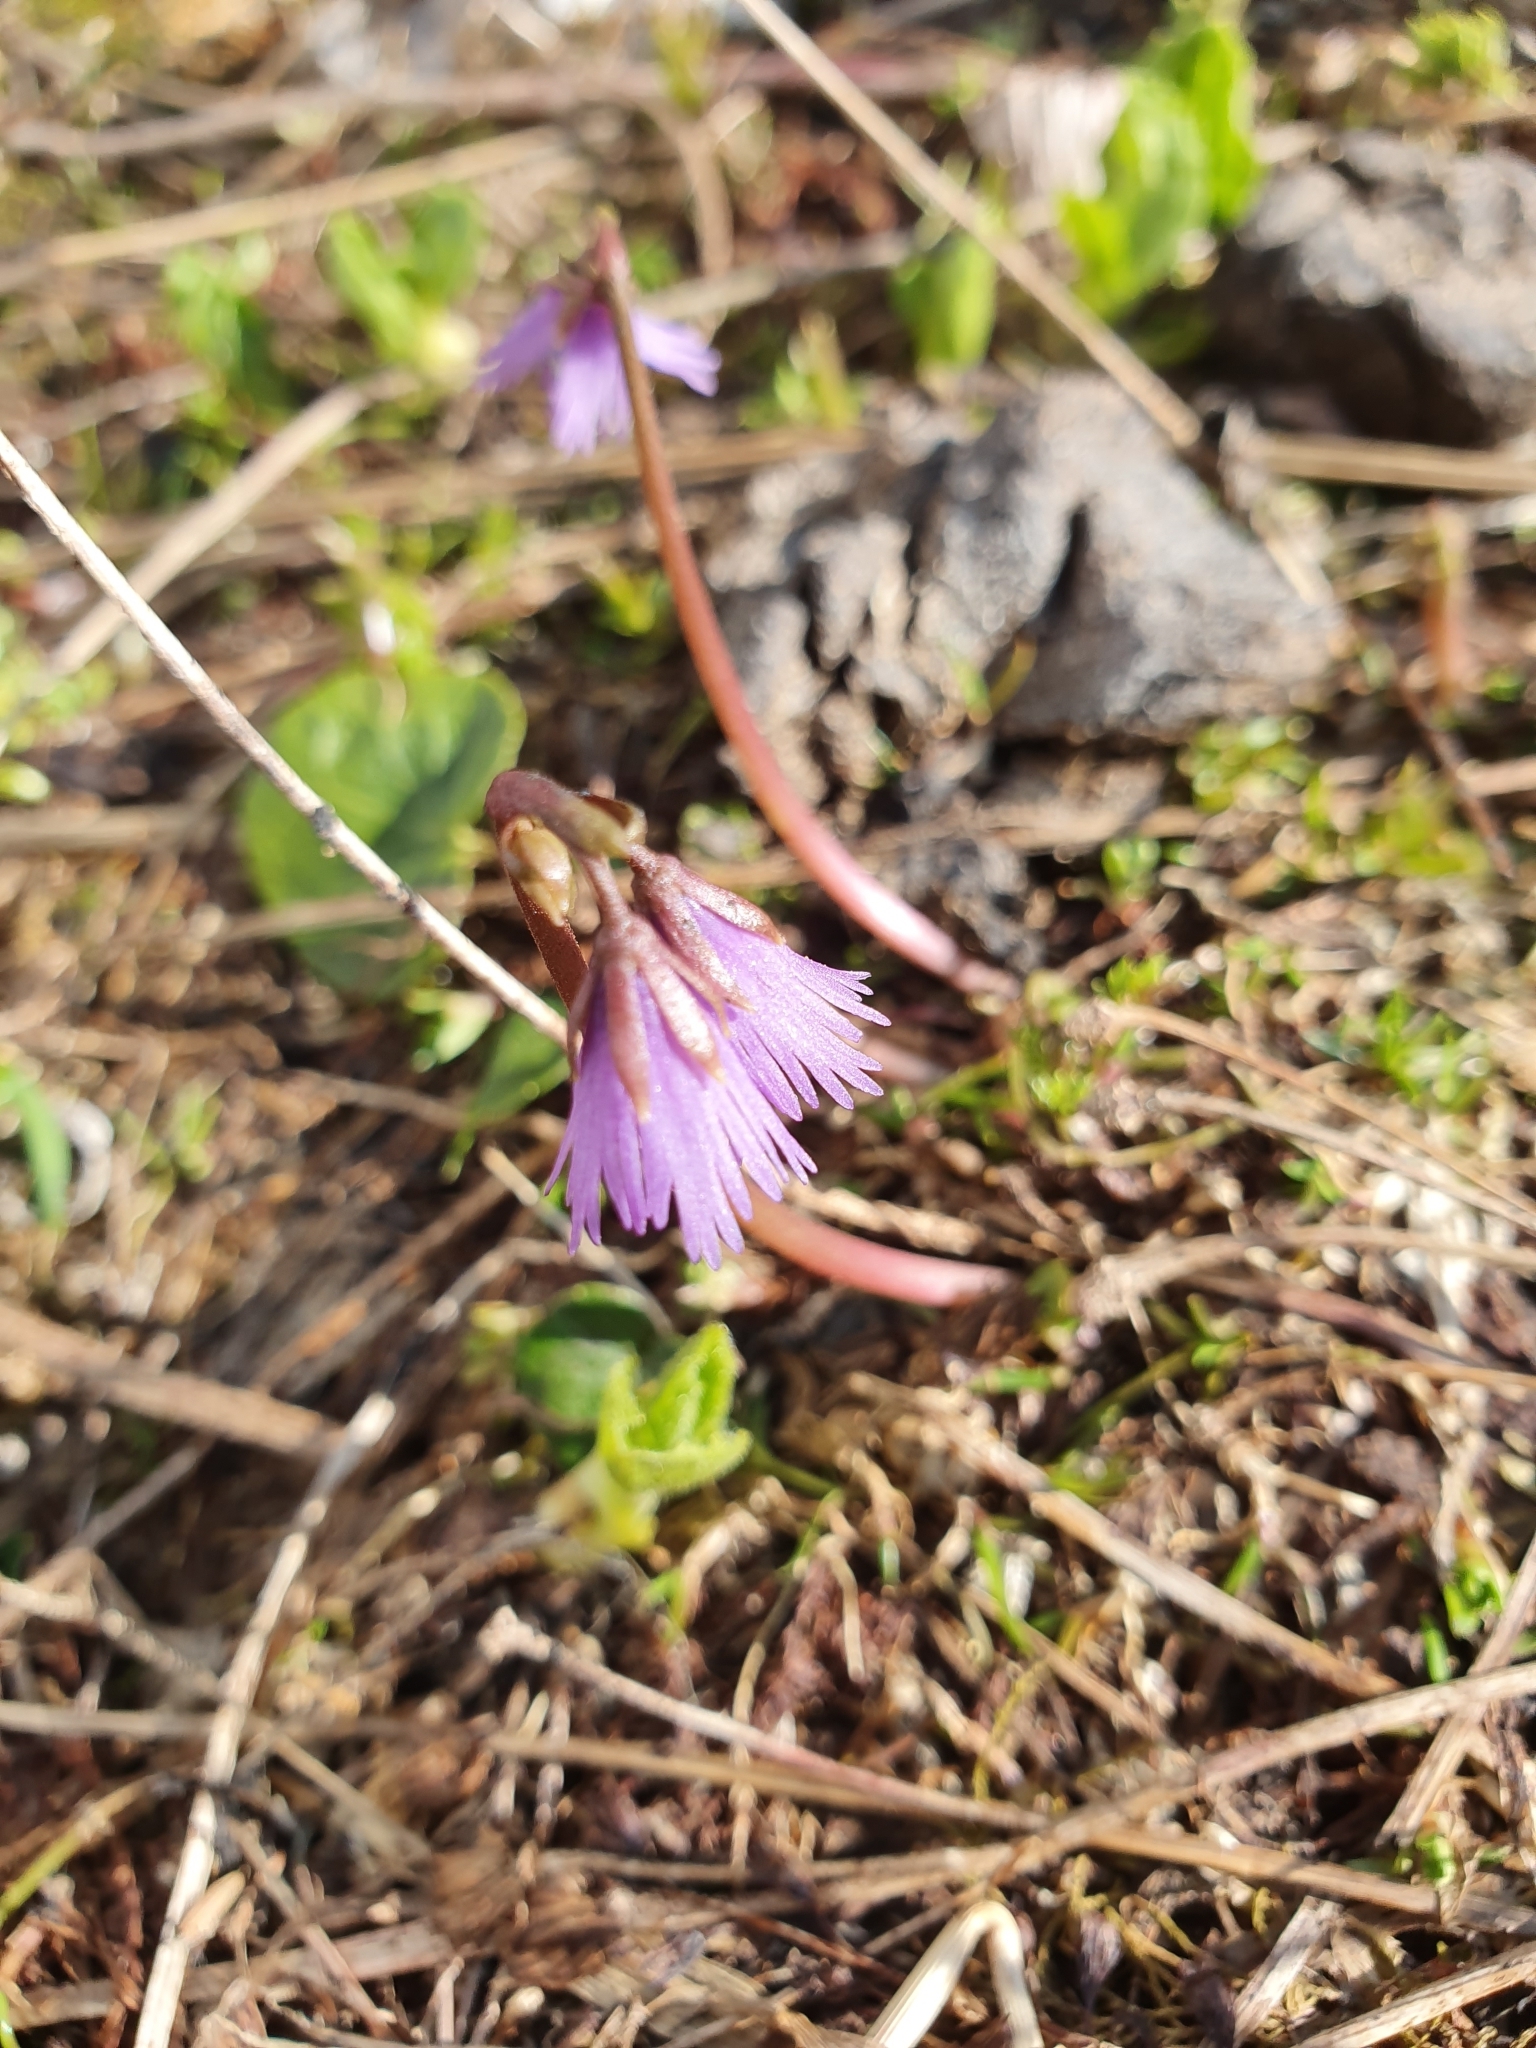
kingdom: Plantae
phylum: Tracheophyta
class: Magnoliopsida
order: Ericales
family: Primulaceae
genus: Soldanella
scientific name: Soldanella alpina
